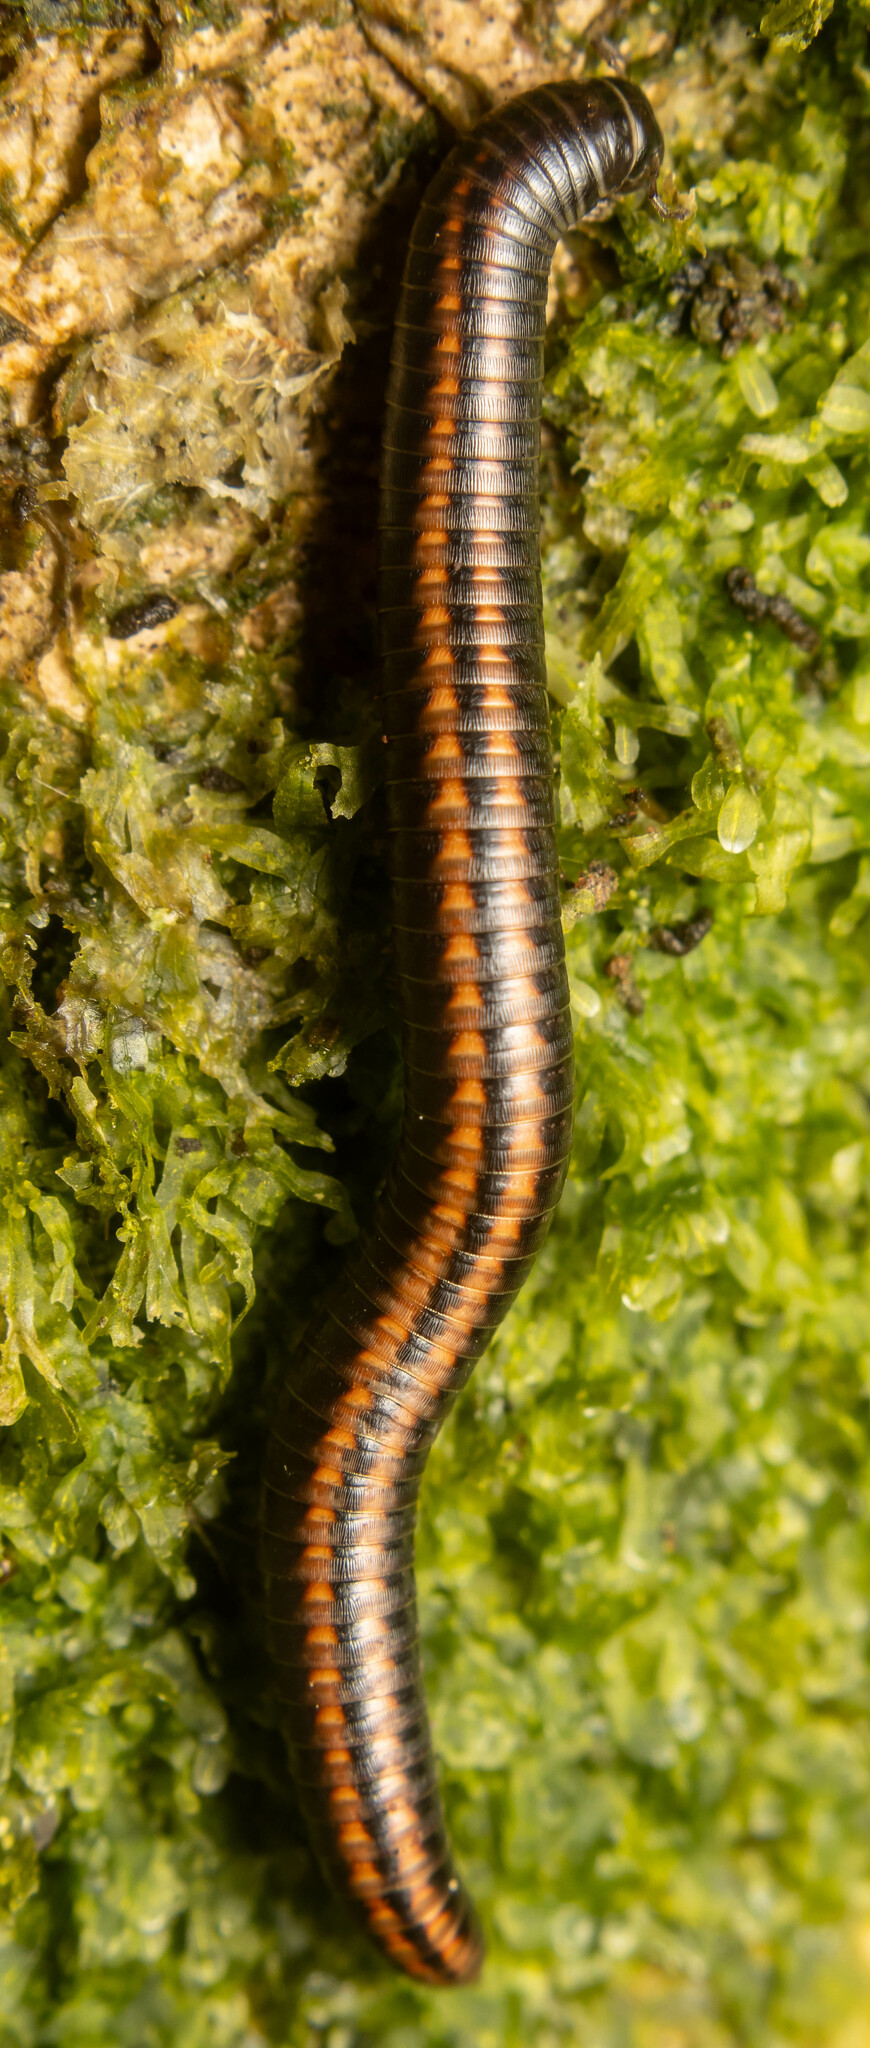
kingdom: Animalia
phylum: Arthropoda
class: Diplopoda
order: Julida
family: Julidae
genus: Ommatoiulus
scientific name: Ommatoiulus sabulosus
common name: Striped millipede
